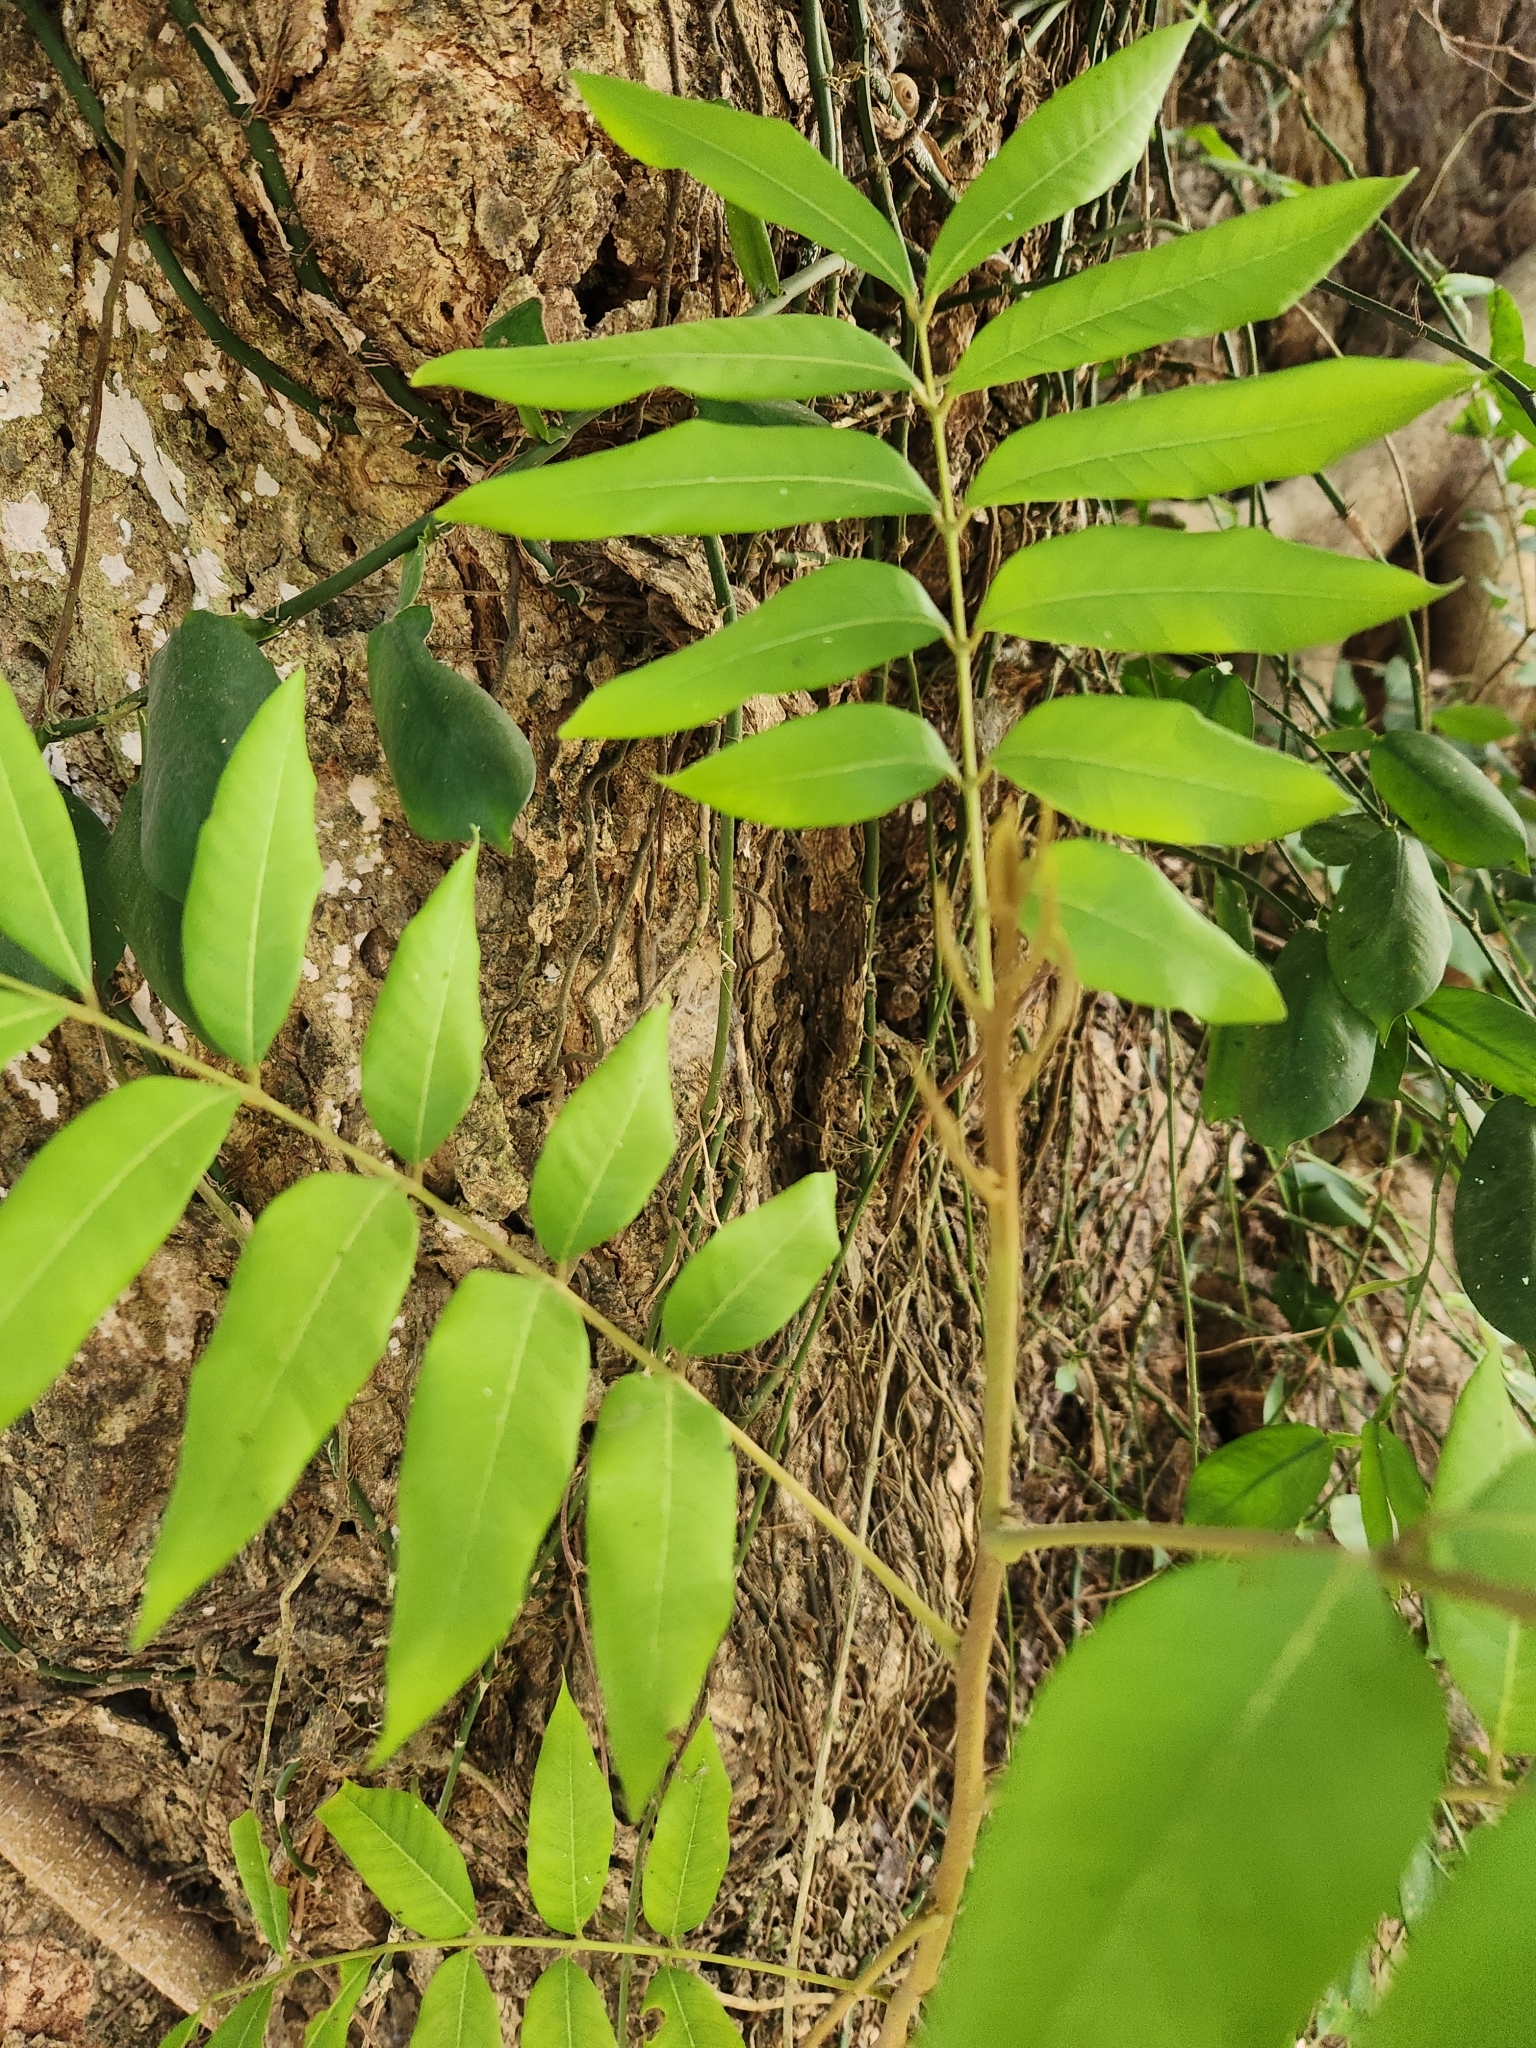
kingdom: Plantae
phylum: Tracheophyta
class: Magnoliopsida
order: Sapindales
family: Sapindaceae
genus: Dimocarpus
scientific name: Dimocarpus longan
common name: Longan
